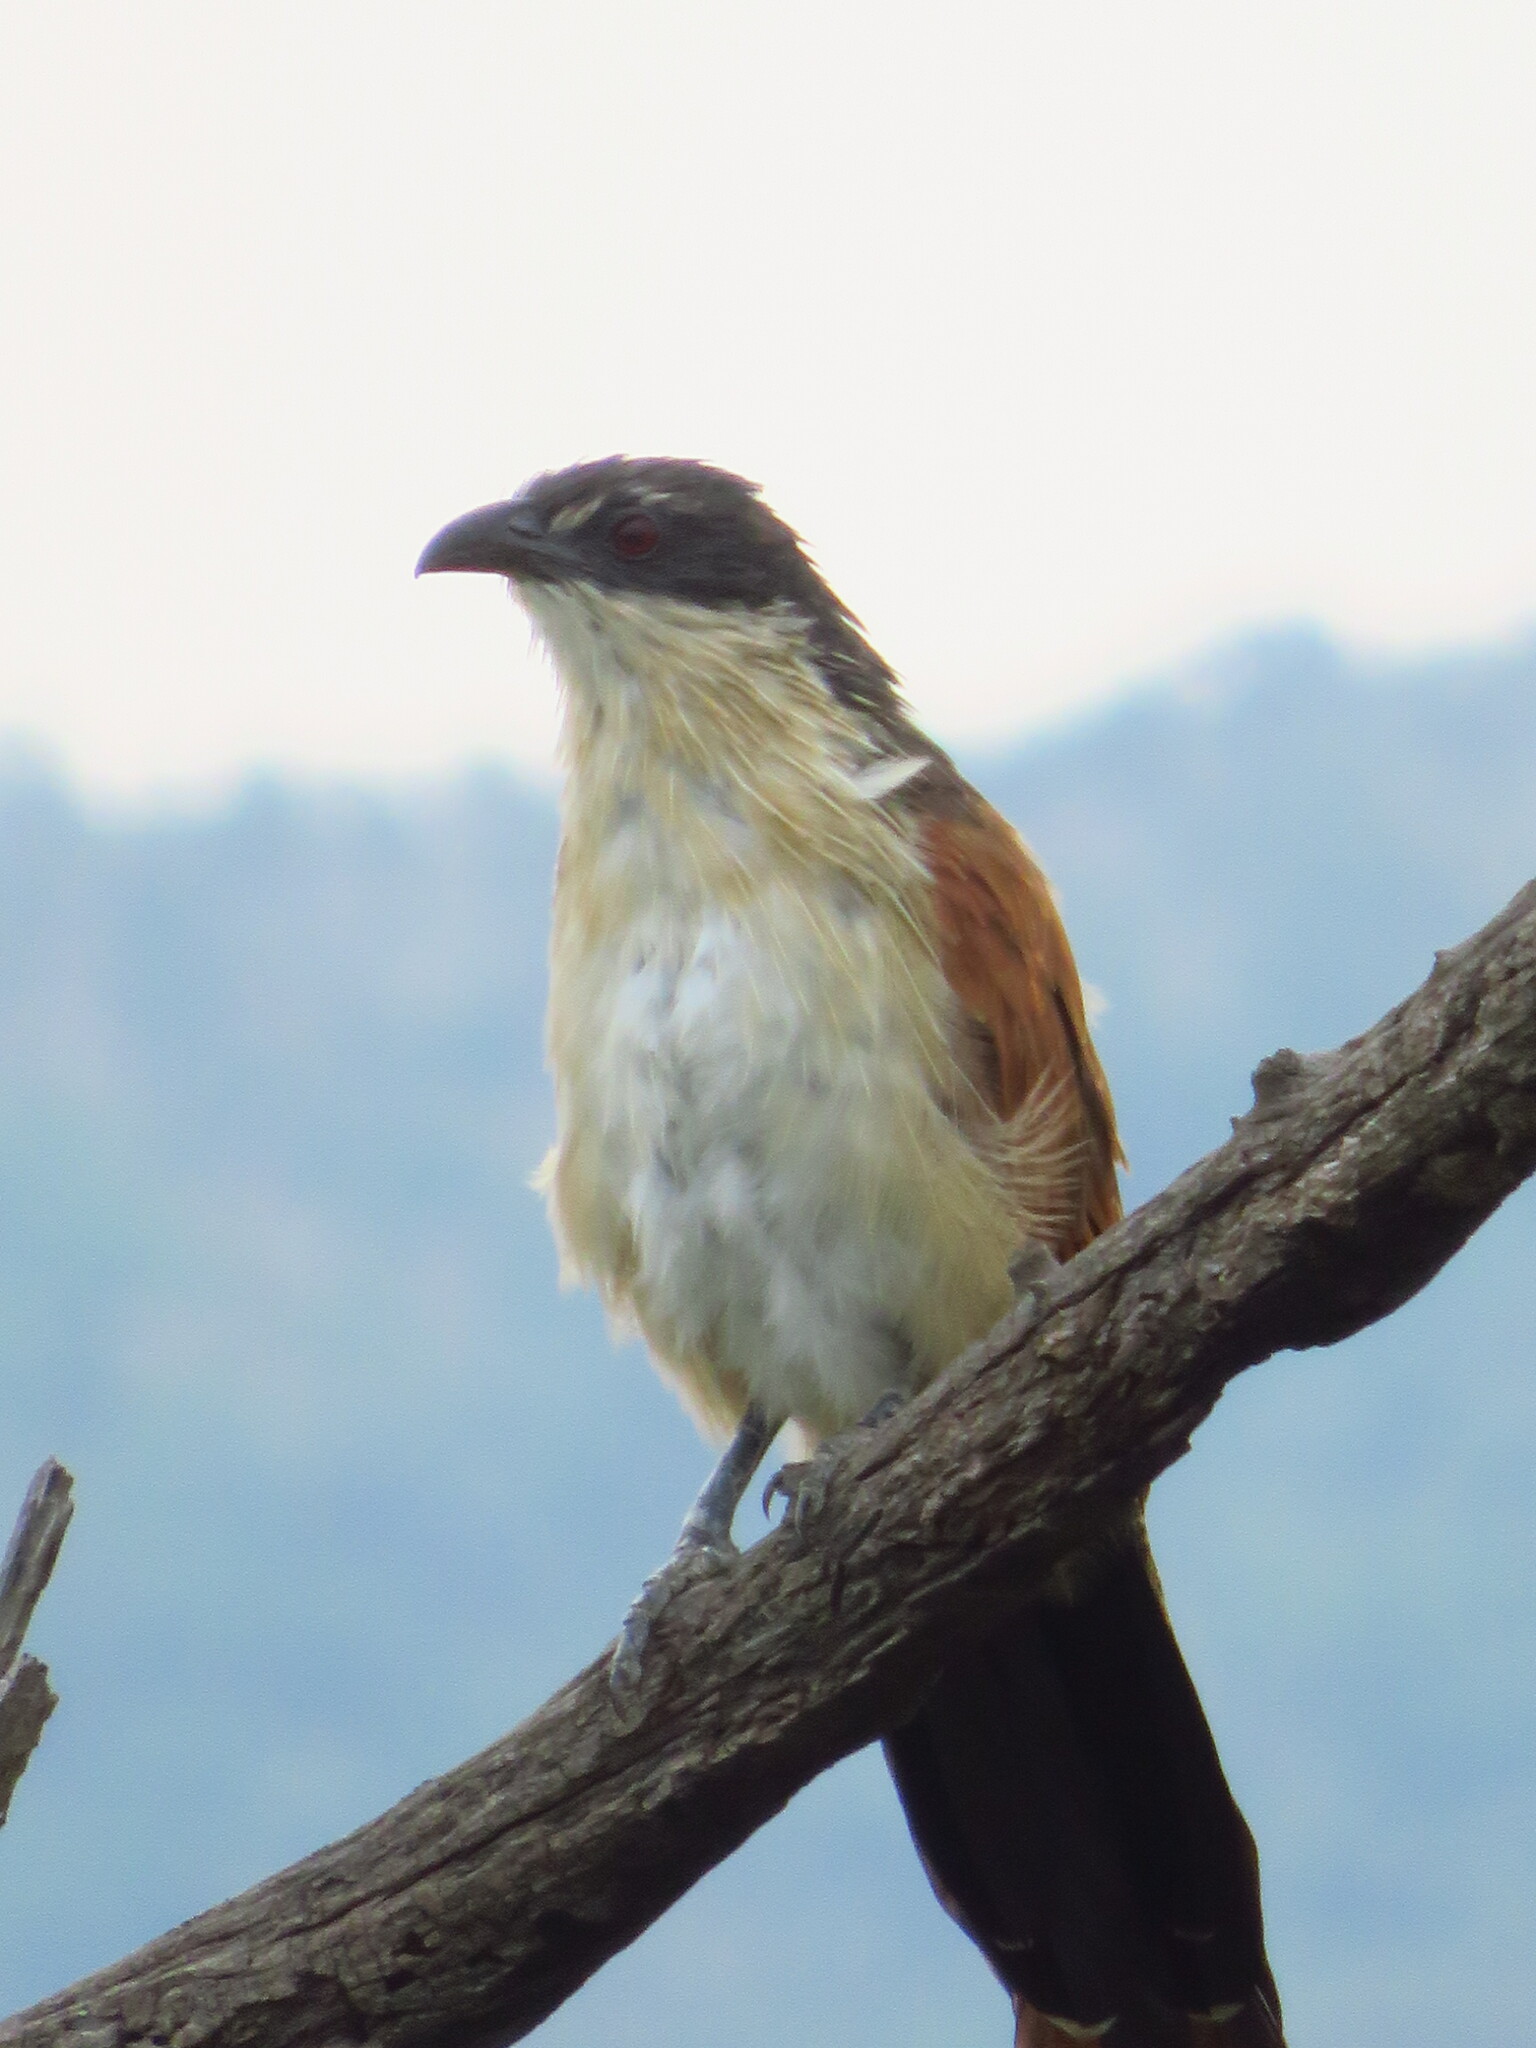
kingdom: Animalia
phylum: Chordata
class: Aves
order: Cuculiformes
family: Cuculidae
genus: Centropus
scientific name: Centropus superciliosus
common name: White-browed coucal
